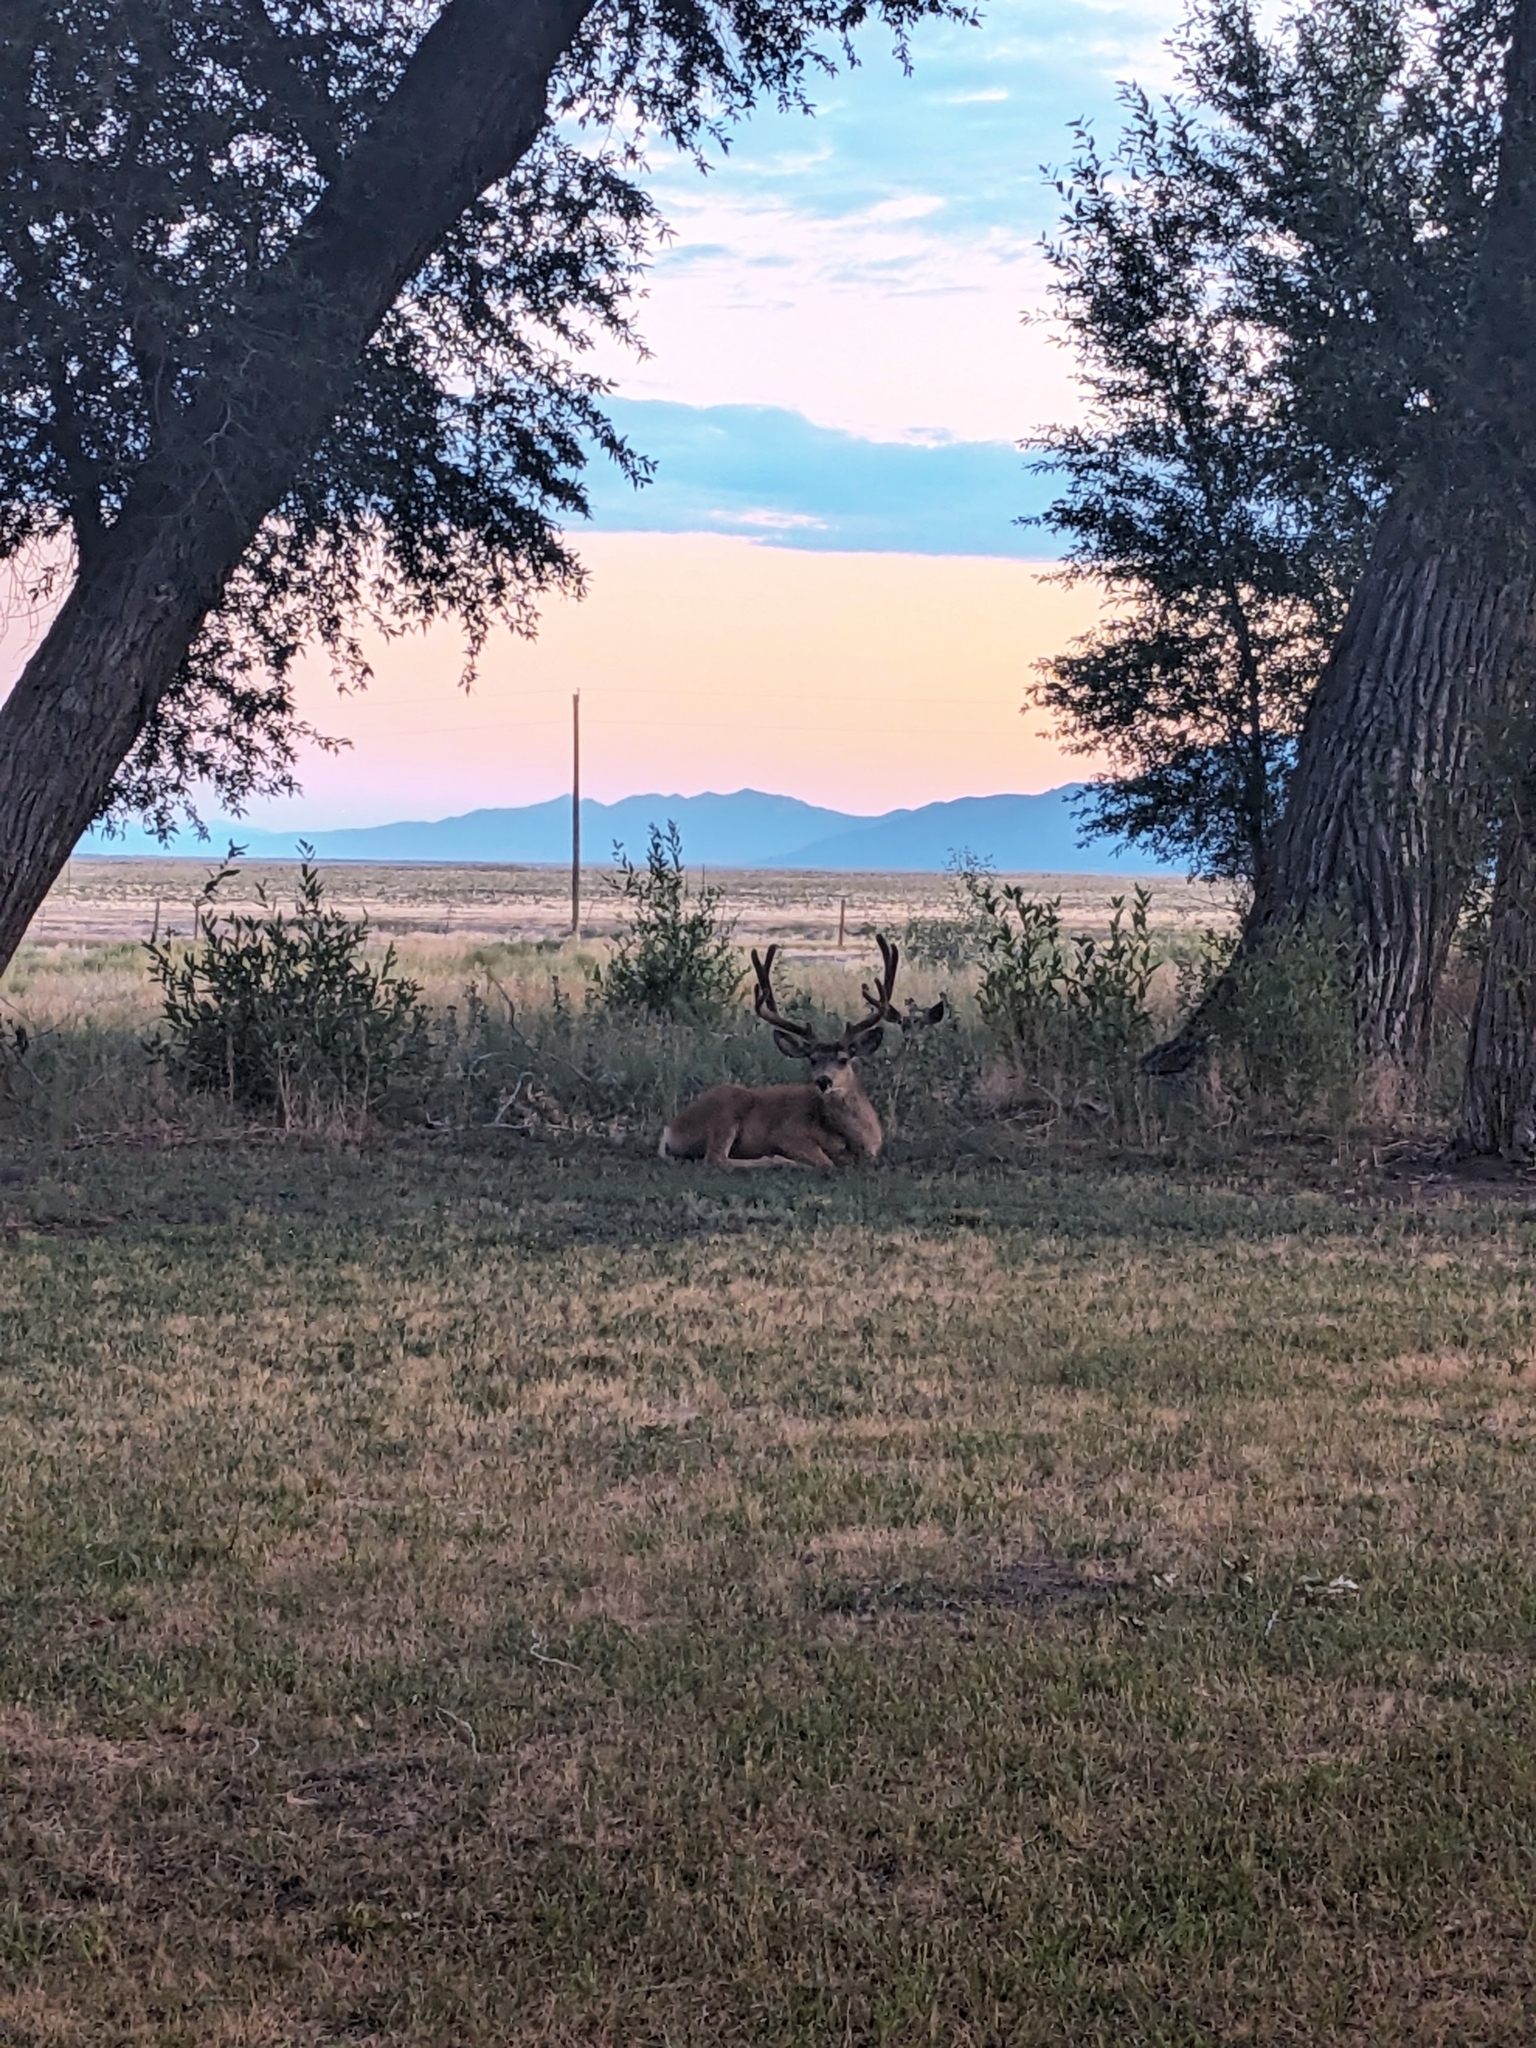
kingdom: Animalia
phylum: Chordata
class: Mammalia
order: Artiodactyla
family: Cervidae
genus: Odocoileus
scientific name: Odocoileus hemionus
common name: Mule deer
